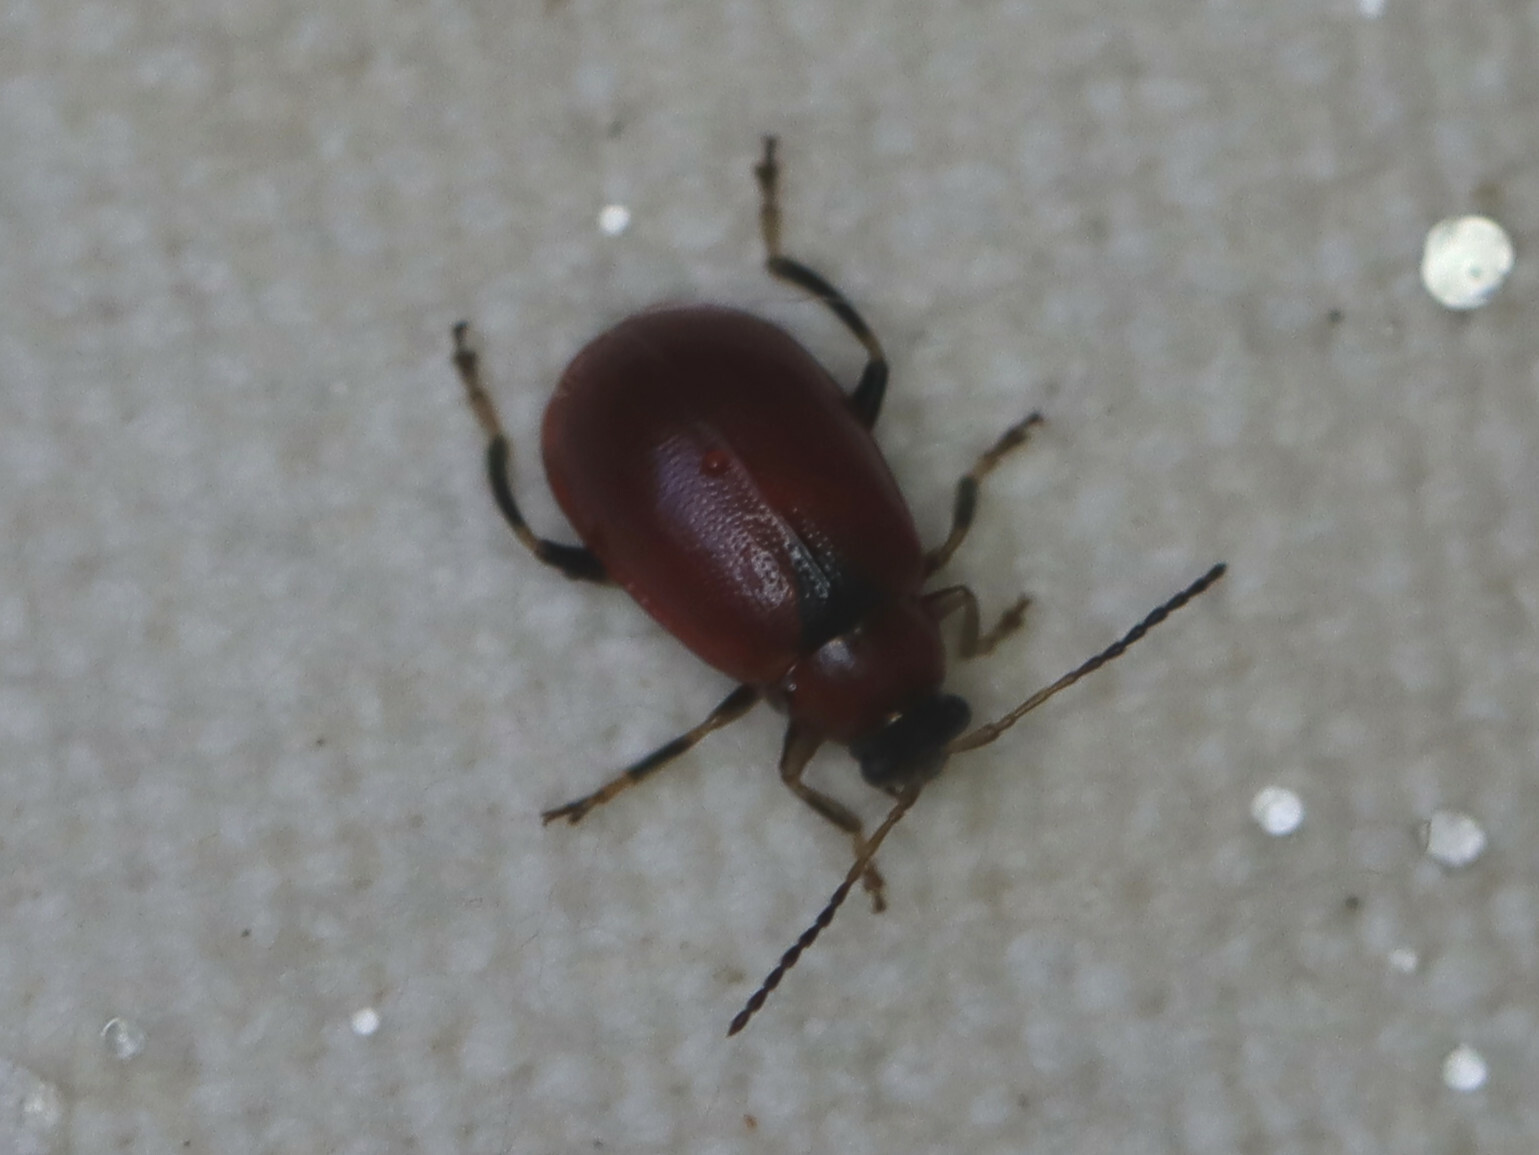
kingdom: Animalia
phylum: Arthropoda
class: Insecta
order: Coleoptera
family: Chrysomelidae
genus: Cerotoma
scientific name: Cerotoma trifurcata
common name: Bean leaf beetle
